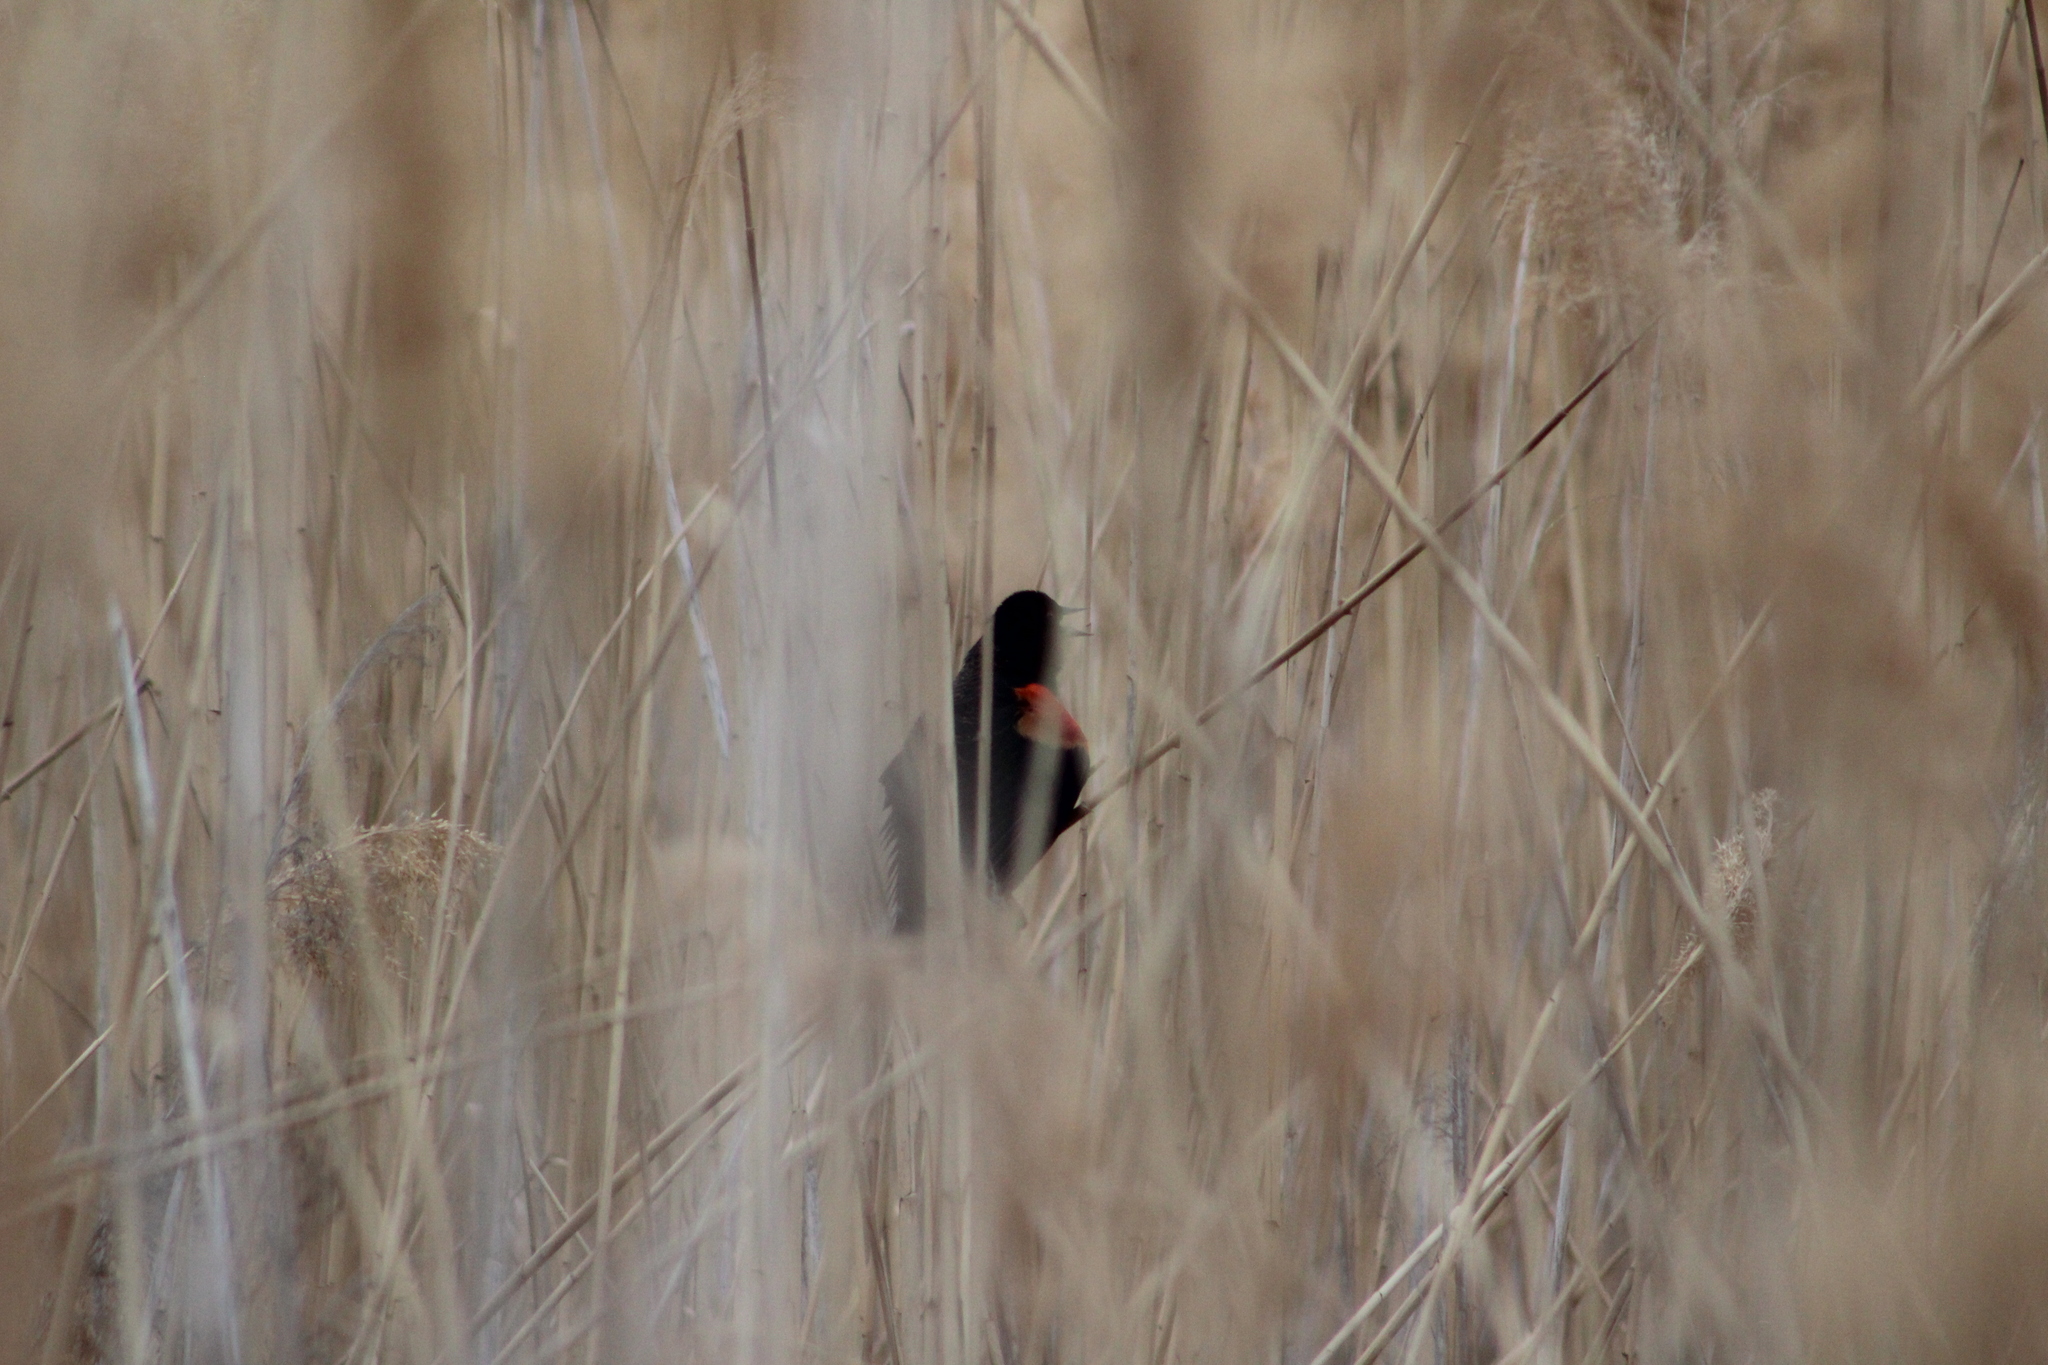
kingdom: Animalia
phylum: Chordata
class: Aves
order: Passeriformes
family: Icteridae
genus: Agelaius
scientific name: Agelaius phoeniceus
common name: Red-winged blackbird
